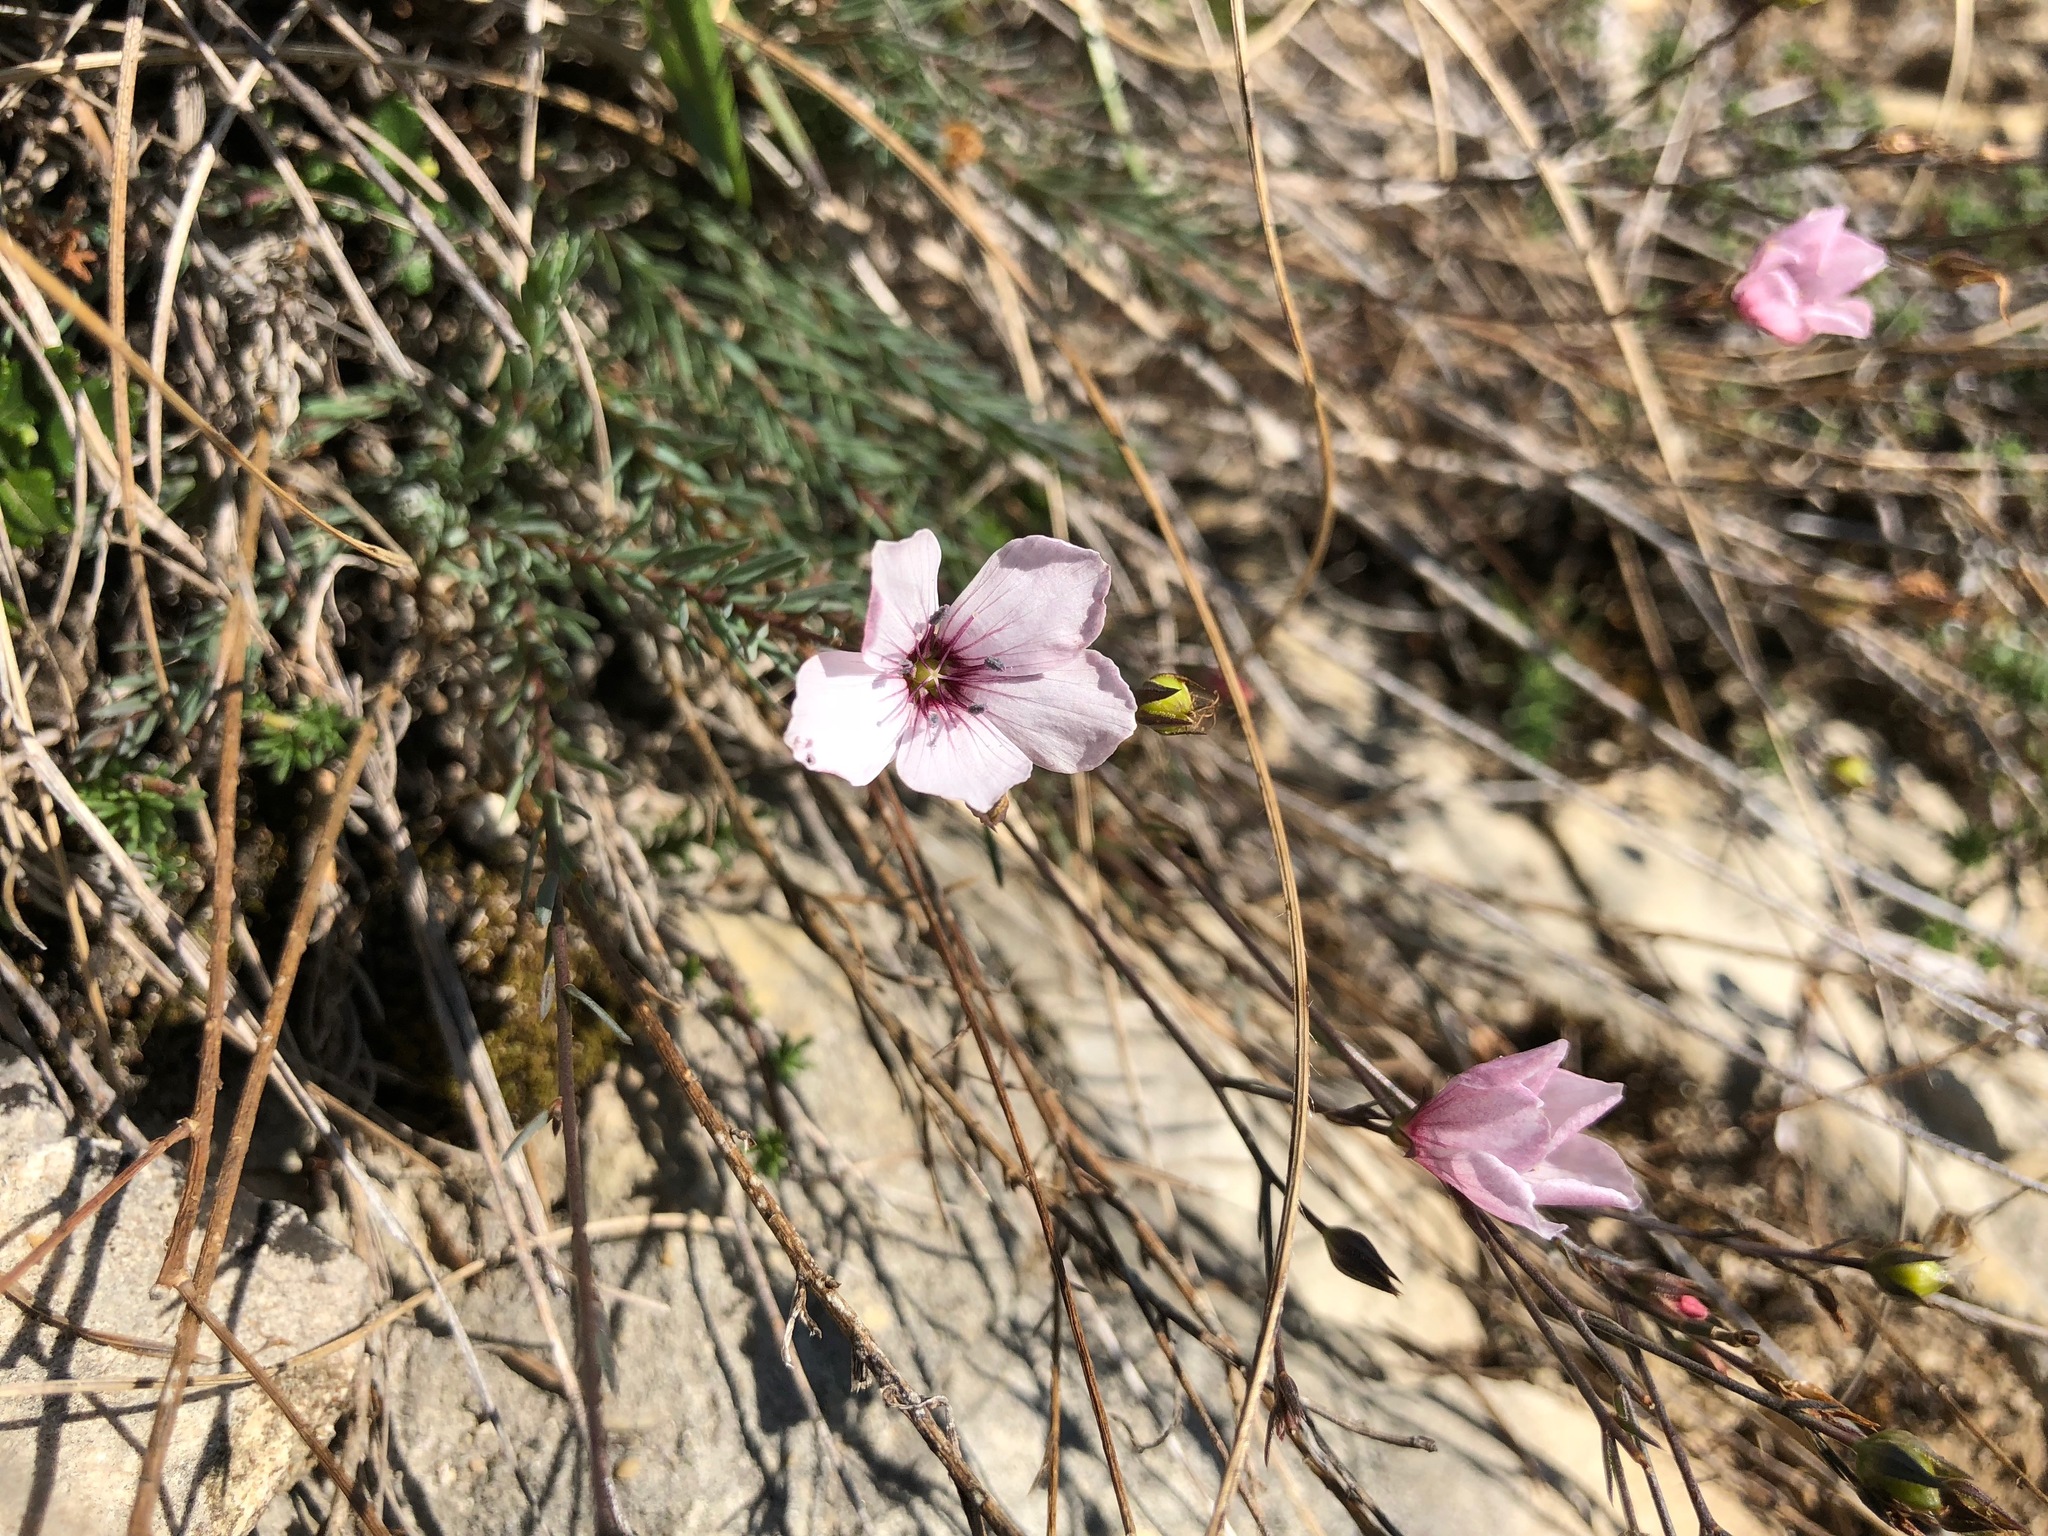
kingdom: Plantae
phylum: Tracheophyta
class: Magnoliopsida
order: Malpighiales
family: Linaceae
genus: Linum
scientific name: Linum tenuifolium
